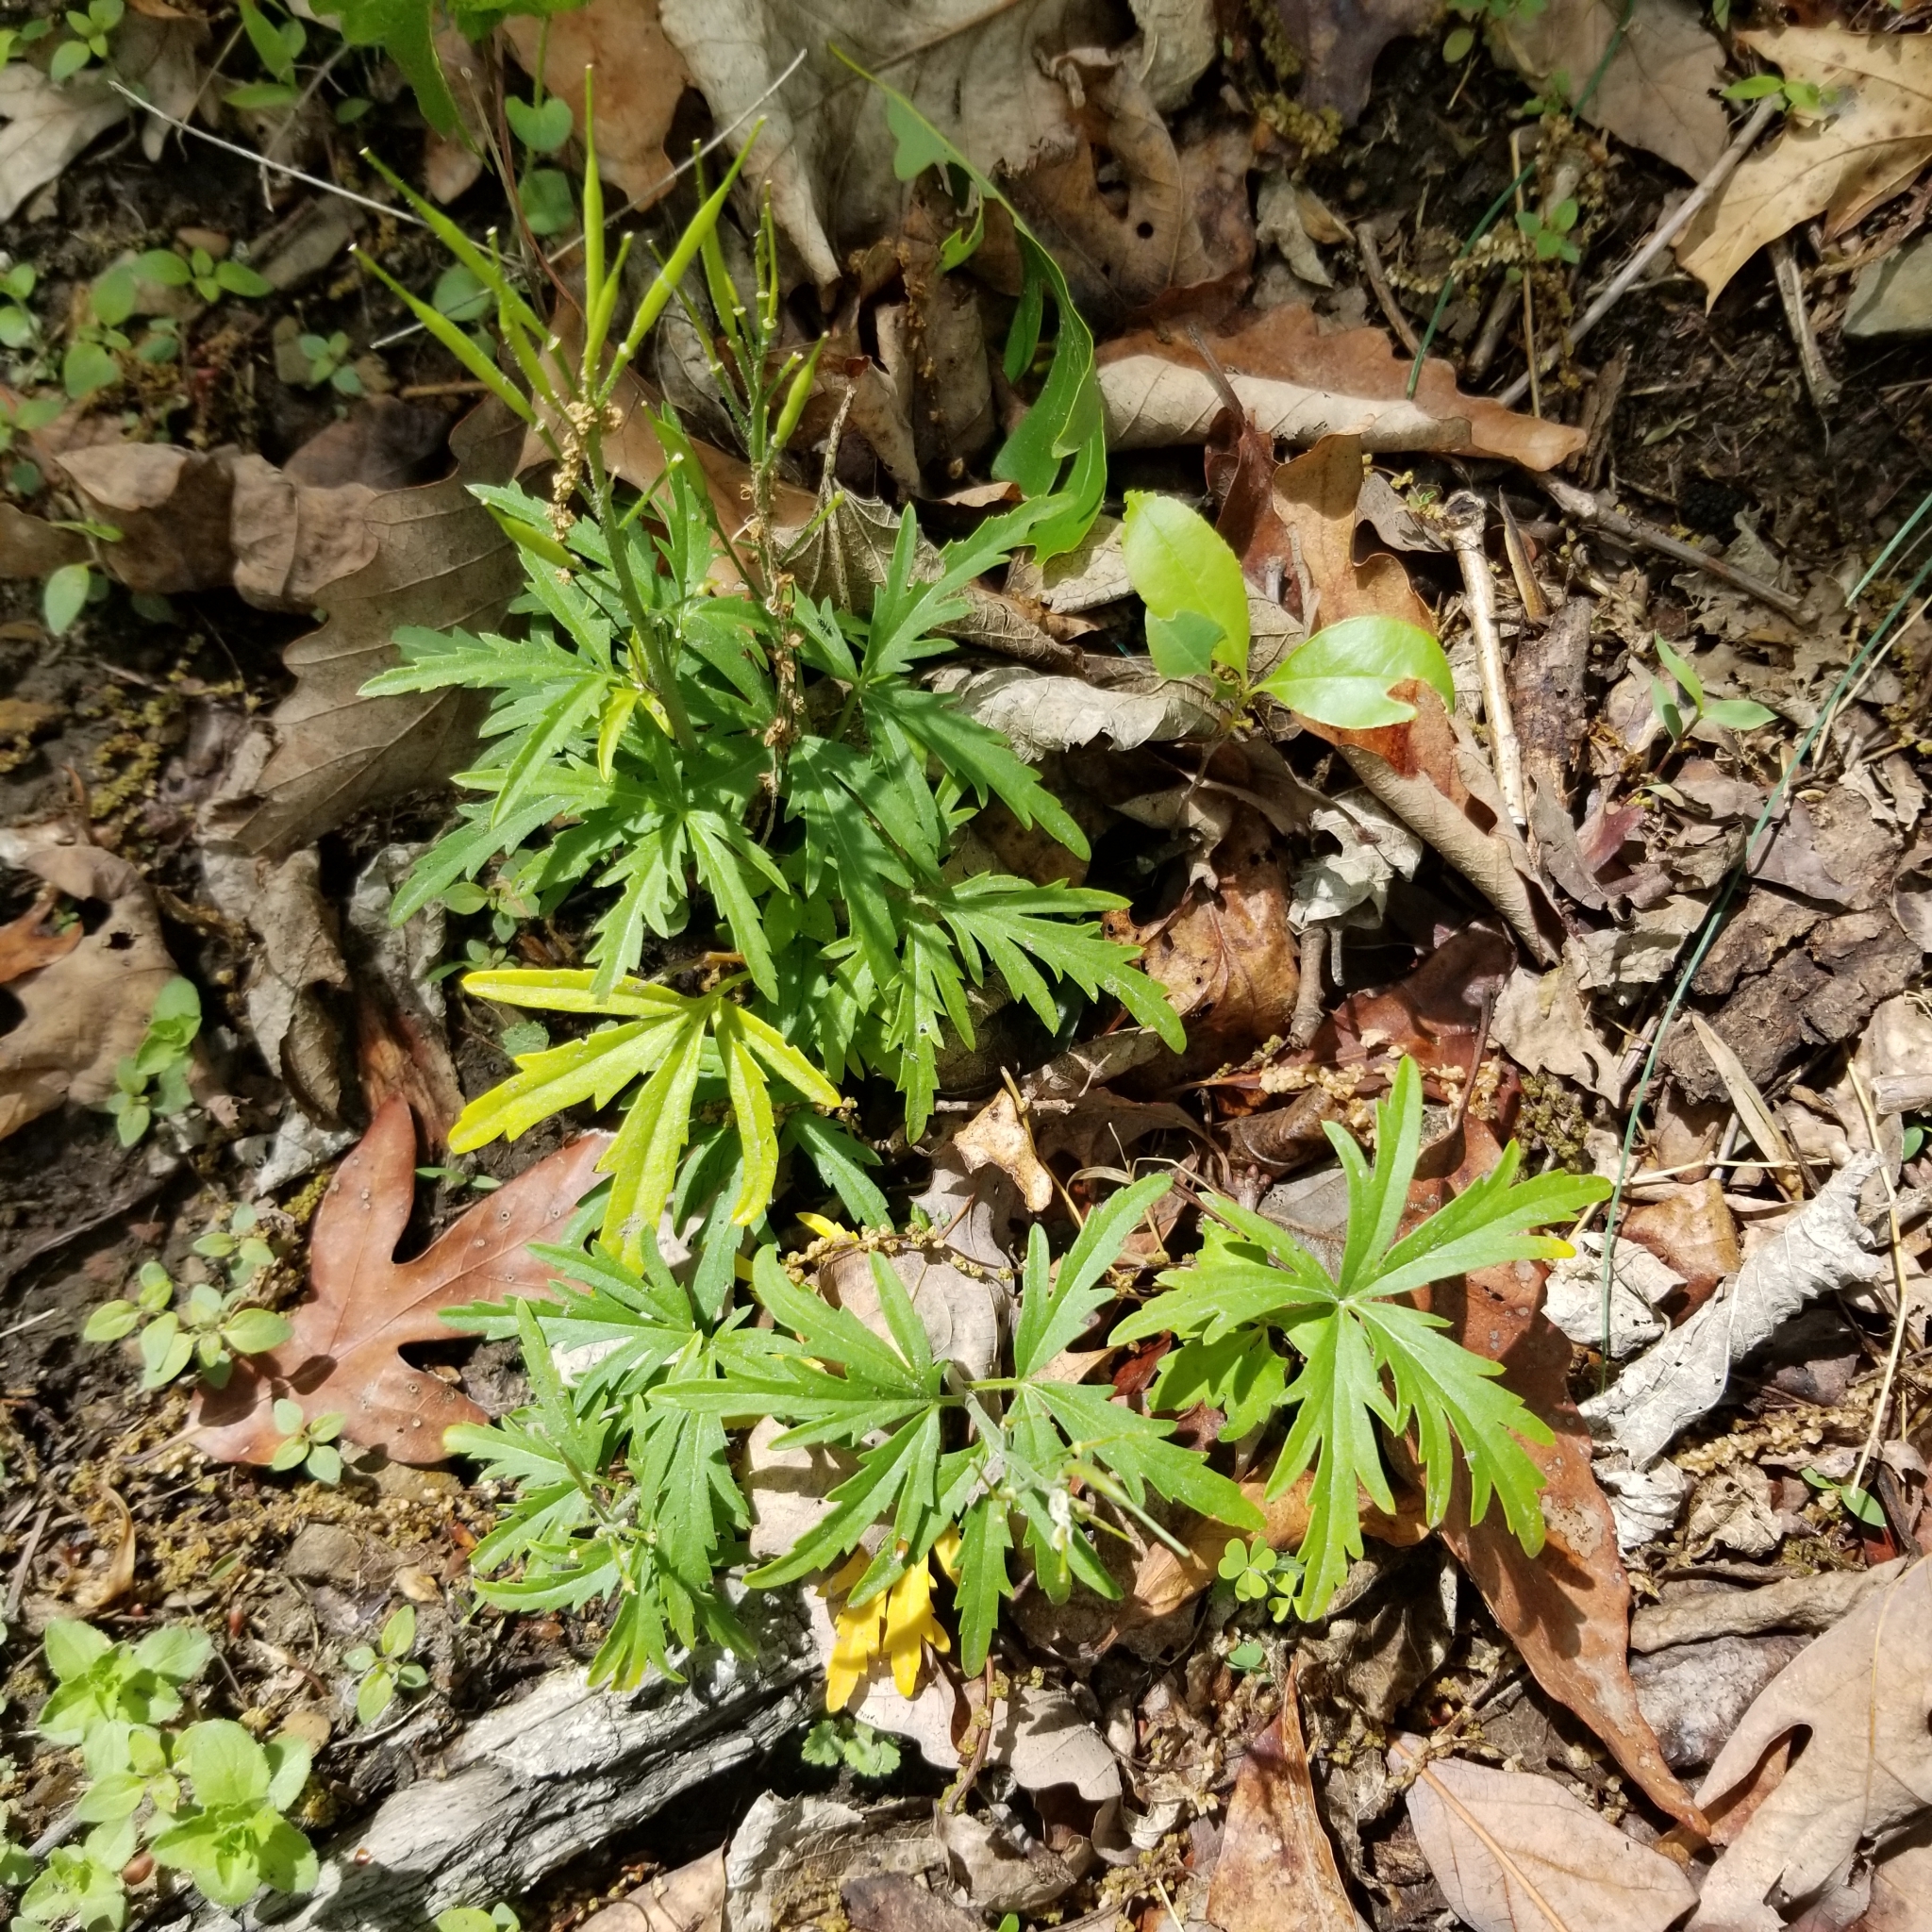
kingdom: Plantae
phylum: Tracheophyta
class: Magnoliopsida
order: Brassicales
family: Brassicaceae
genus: Cardamine
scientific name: Cardamine concatenata
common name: Cut-leaf toothcup
